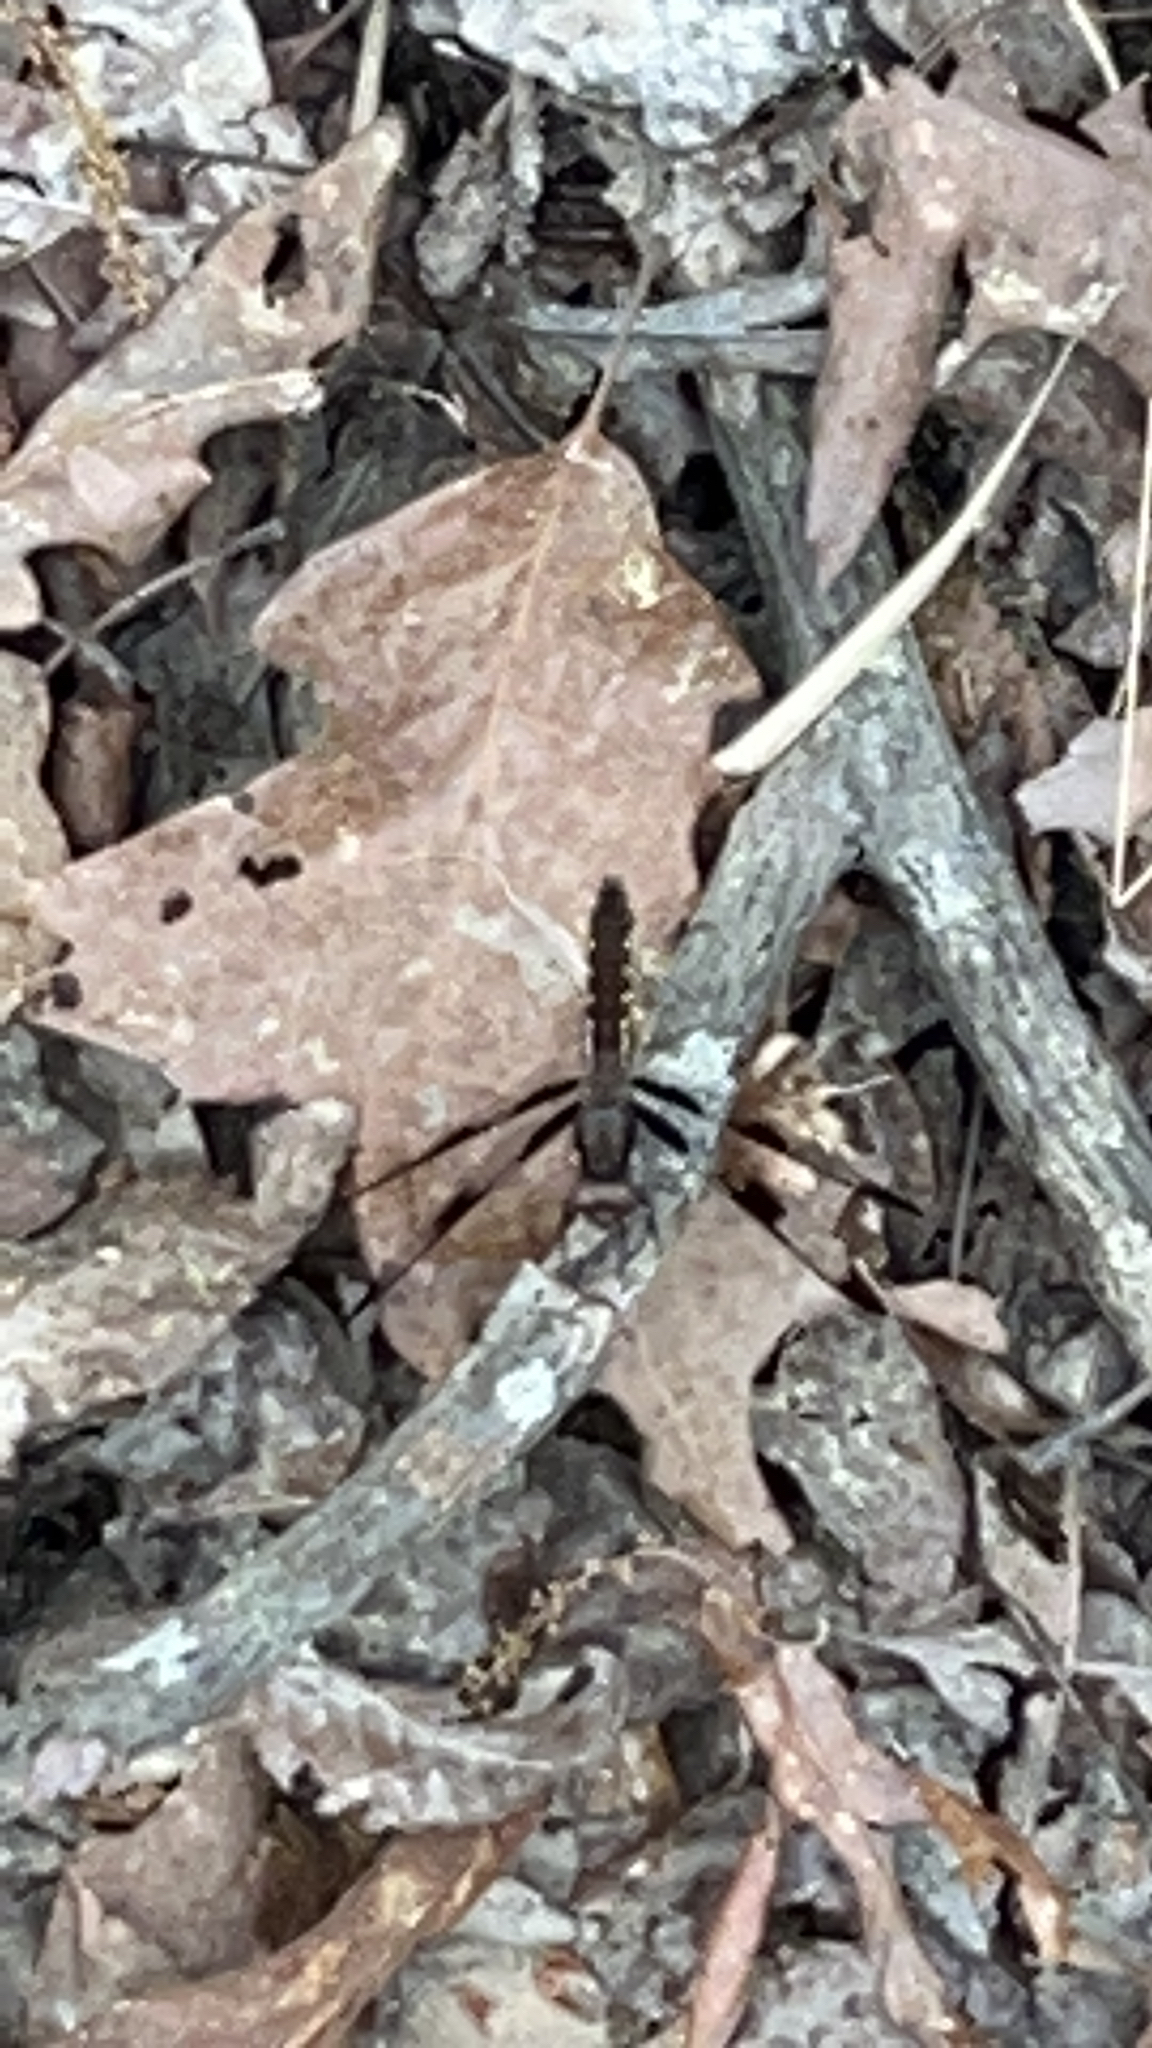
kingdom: Animalia
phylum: Arthropoda
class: Insecta
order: Odonata
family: Libellulidae
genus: Plathemis
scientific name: Plathemis lydia
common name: Common whitetail
